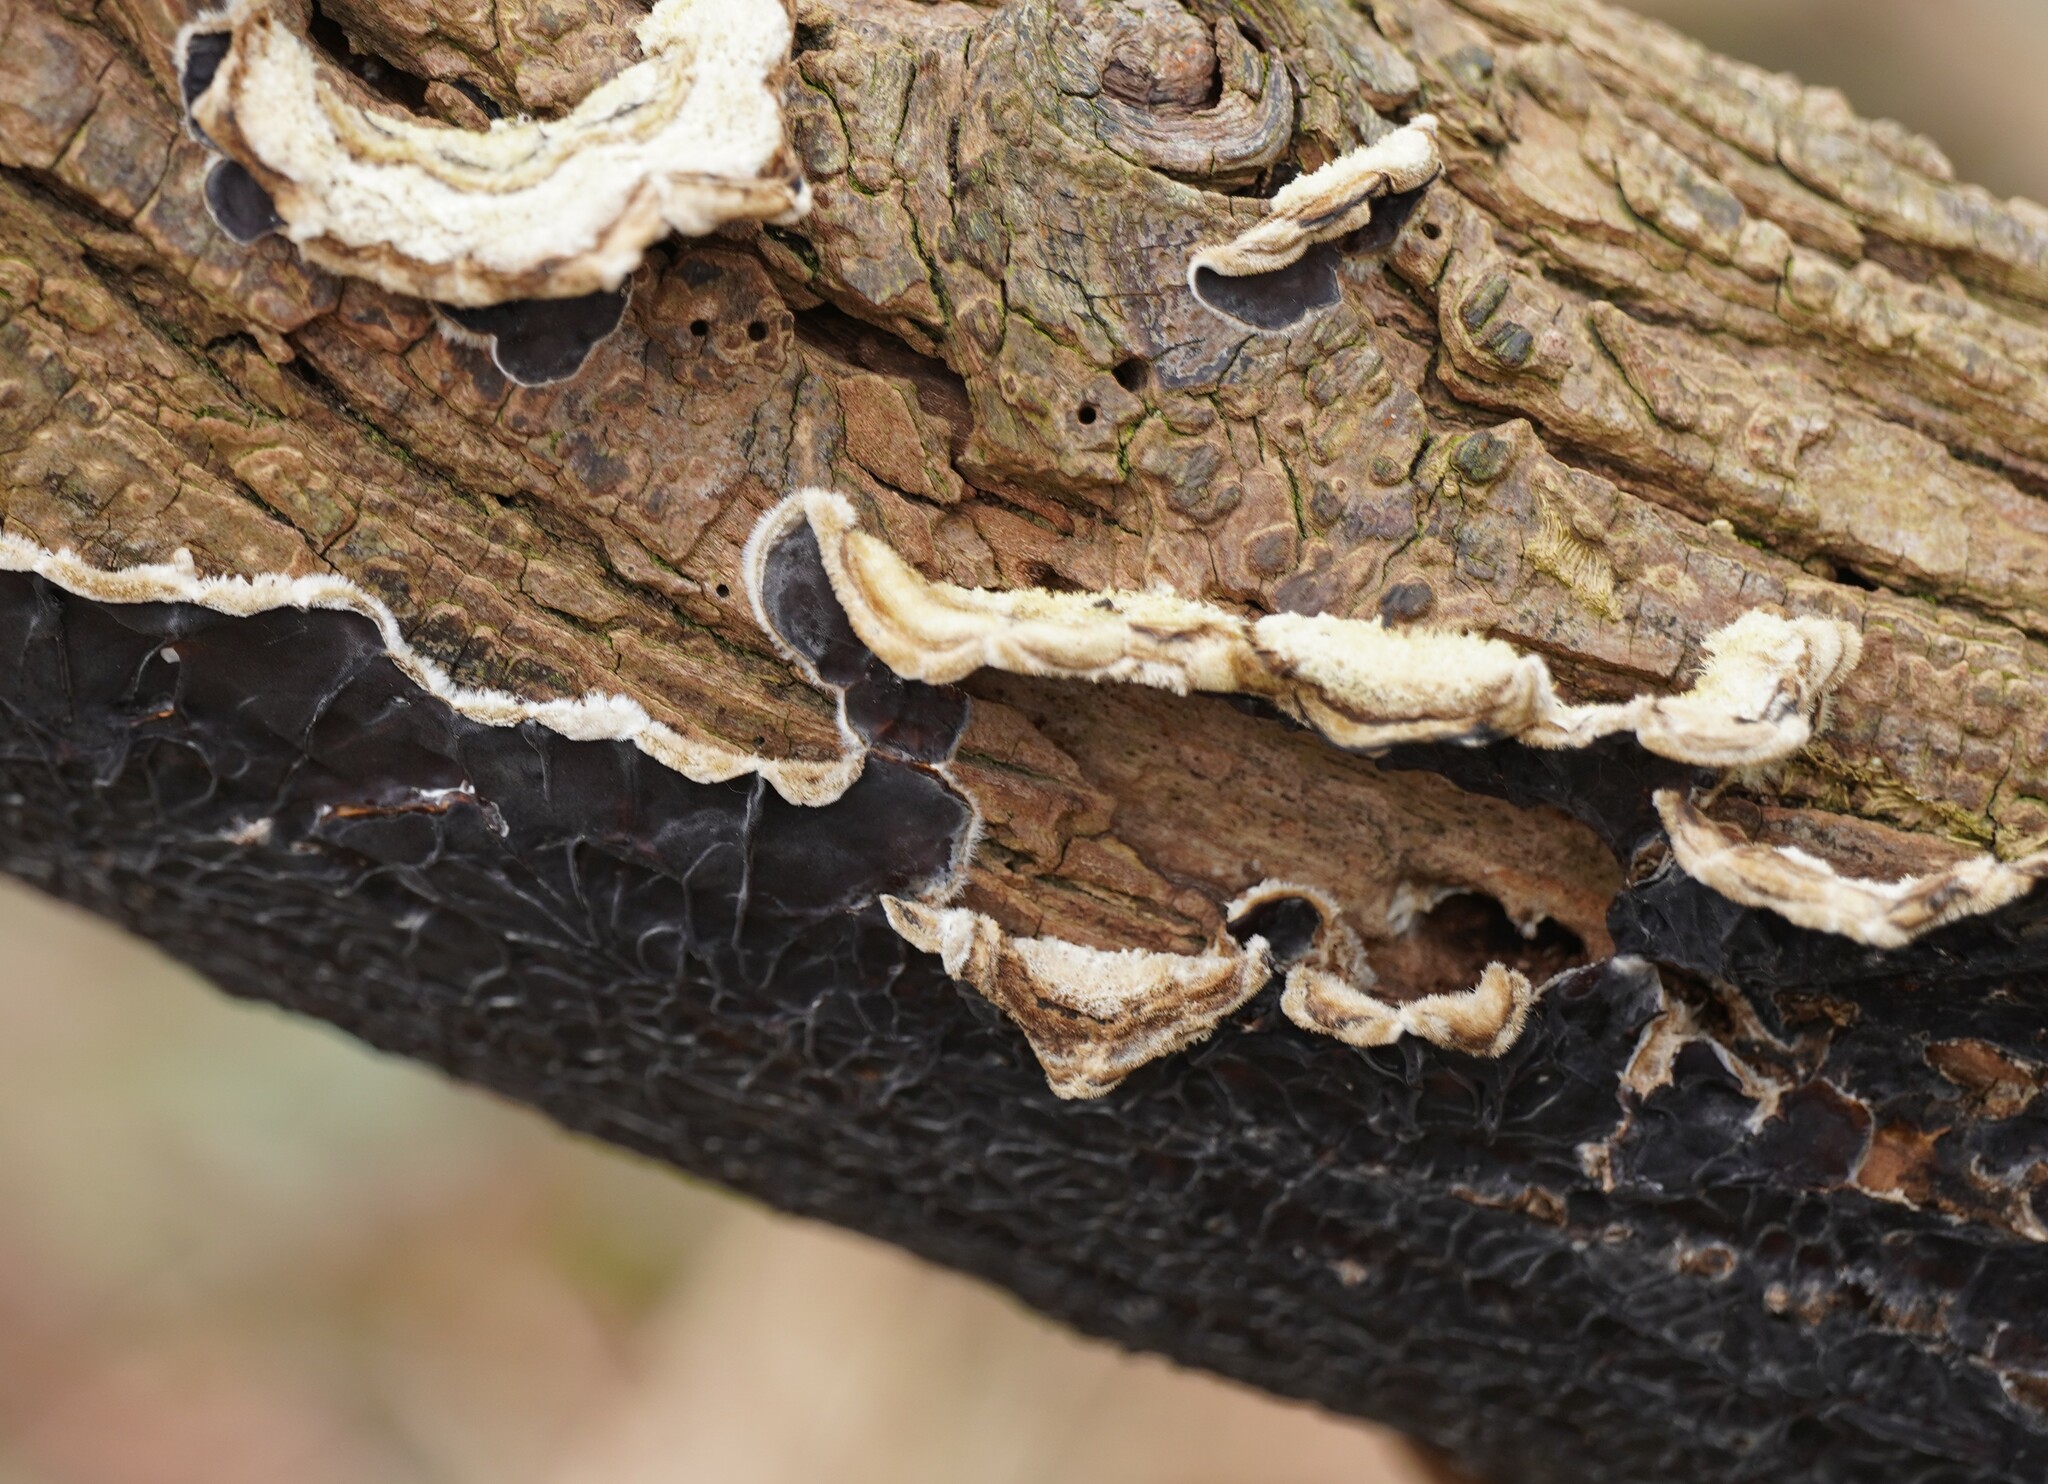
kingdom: Fungi
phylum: Basidiomycota
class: Agaricomycetes
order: Auriculariales
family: Auriculariaceae
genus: Auricularia
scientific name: Auricularia mesenterica
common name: Tripe fungus
